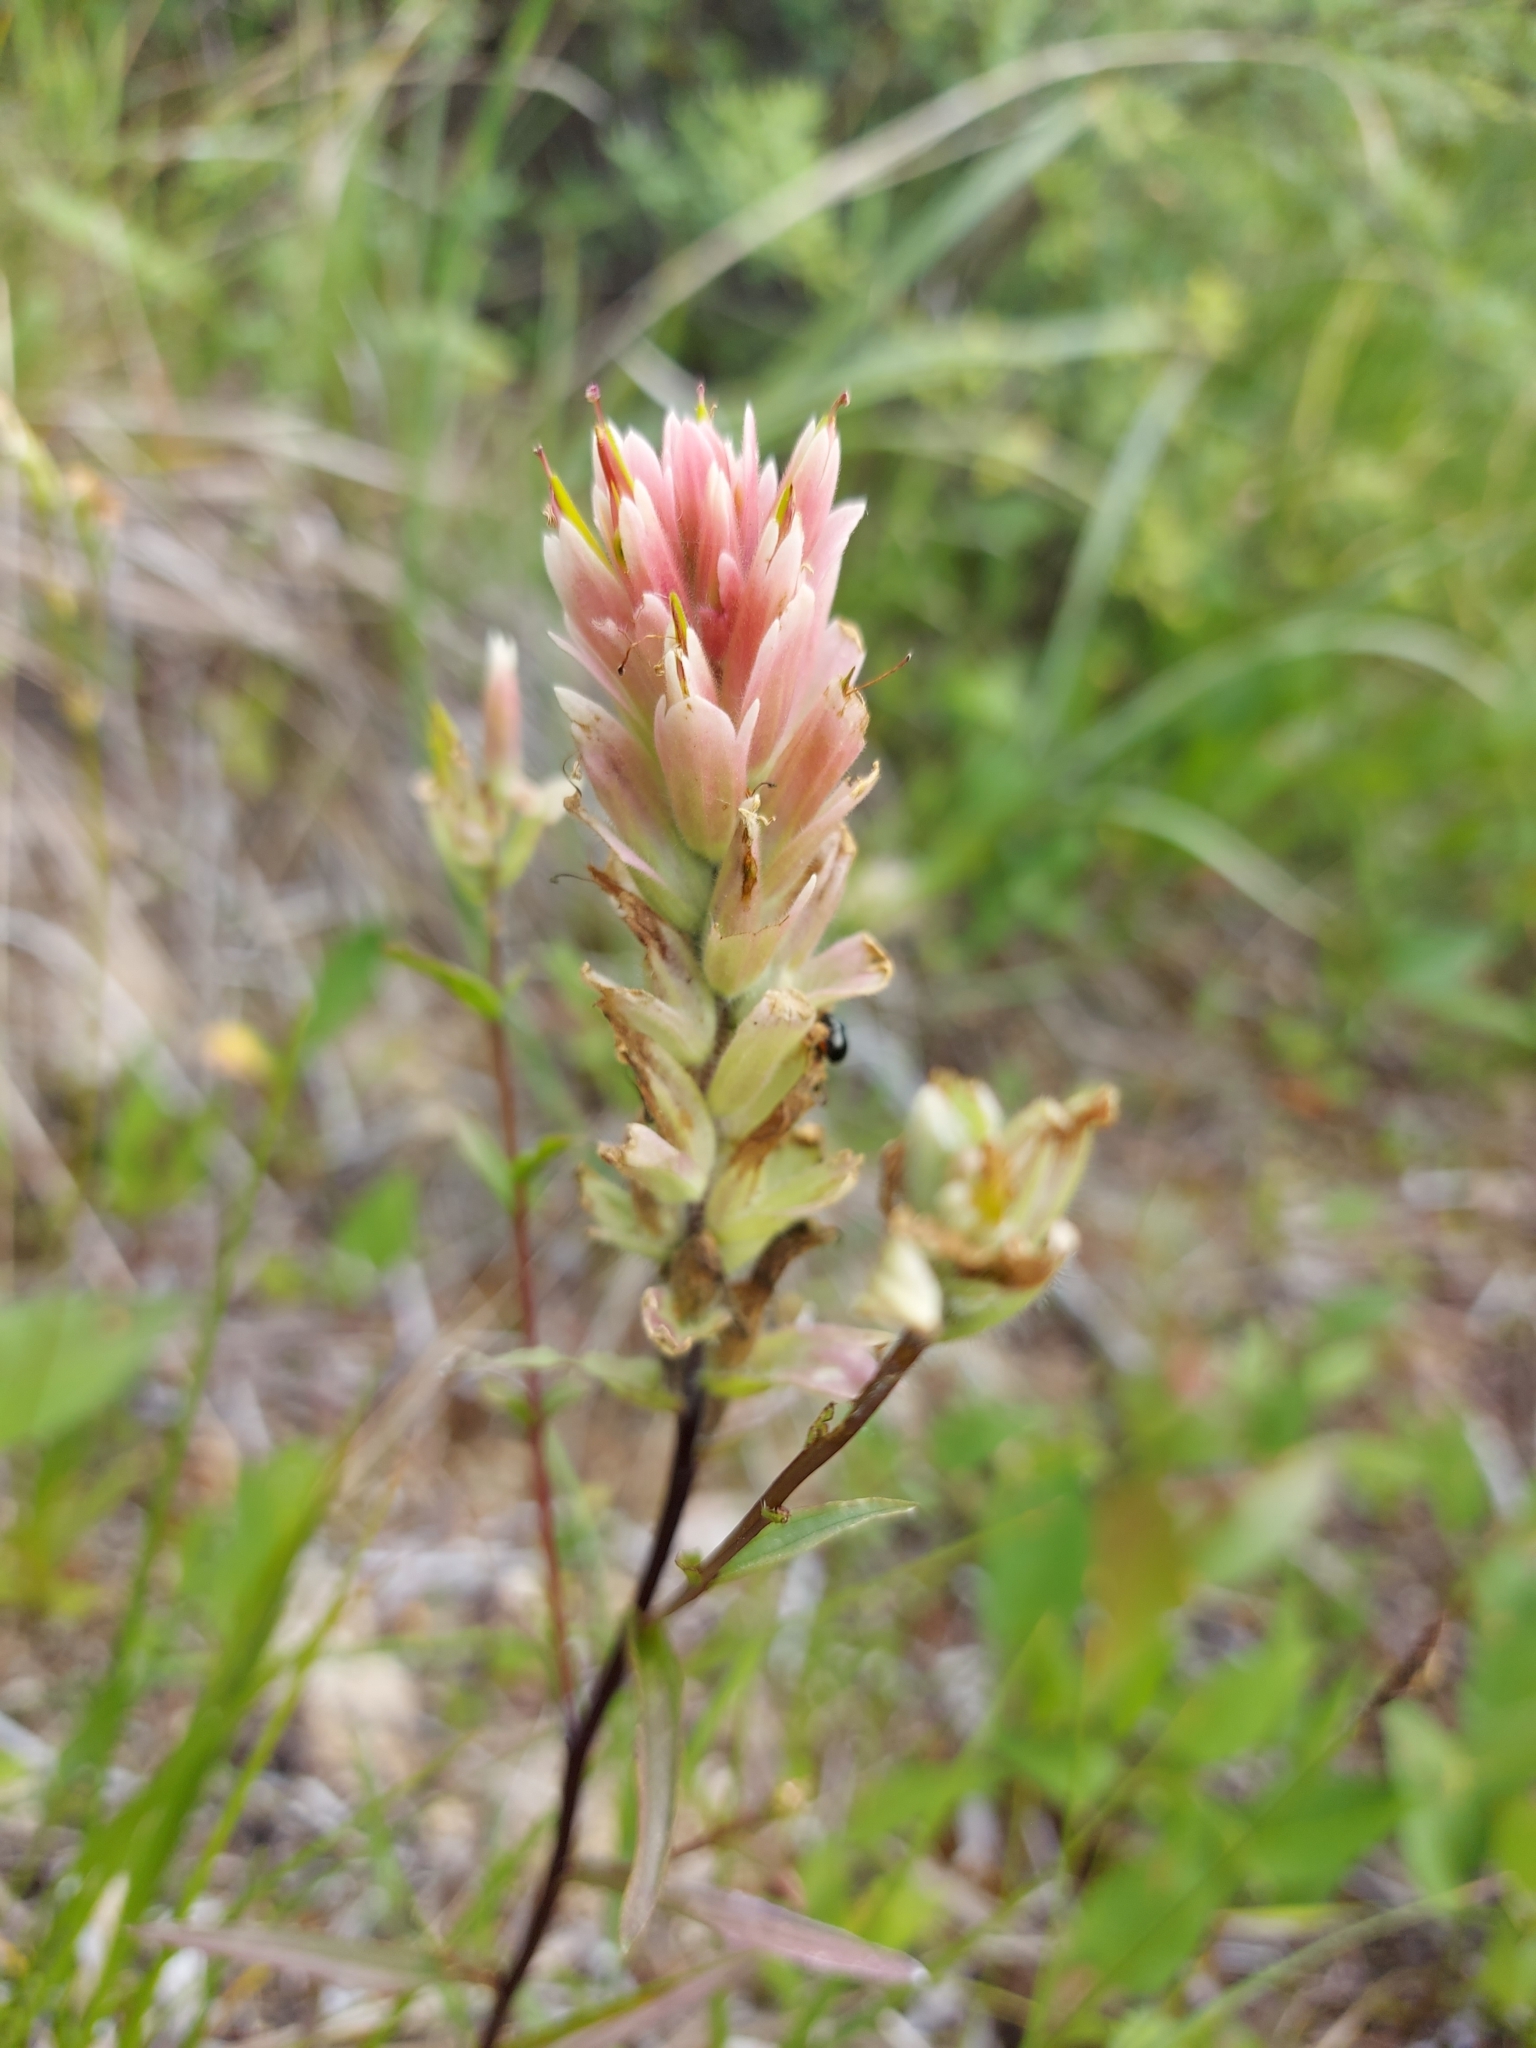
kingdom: Plantae
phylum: Tracheophyta
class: Magnoliopsida
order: Lamiales
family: Orobanchaceae
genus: Castilleja
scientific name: Castilleja miniata
